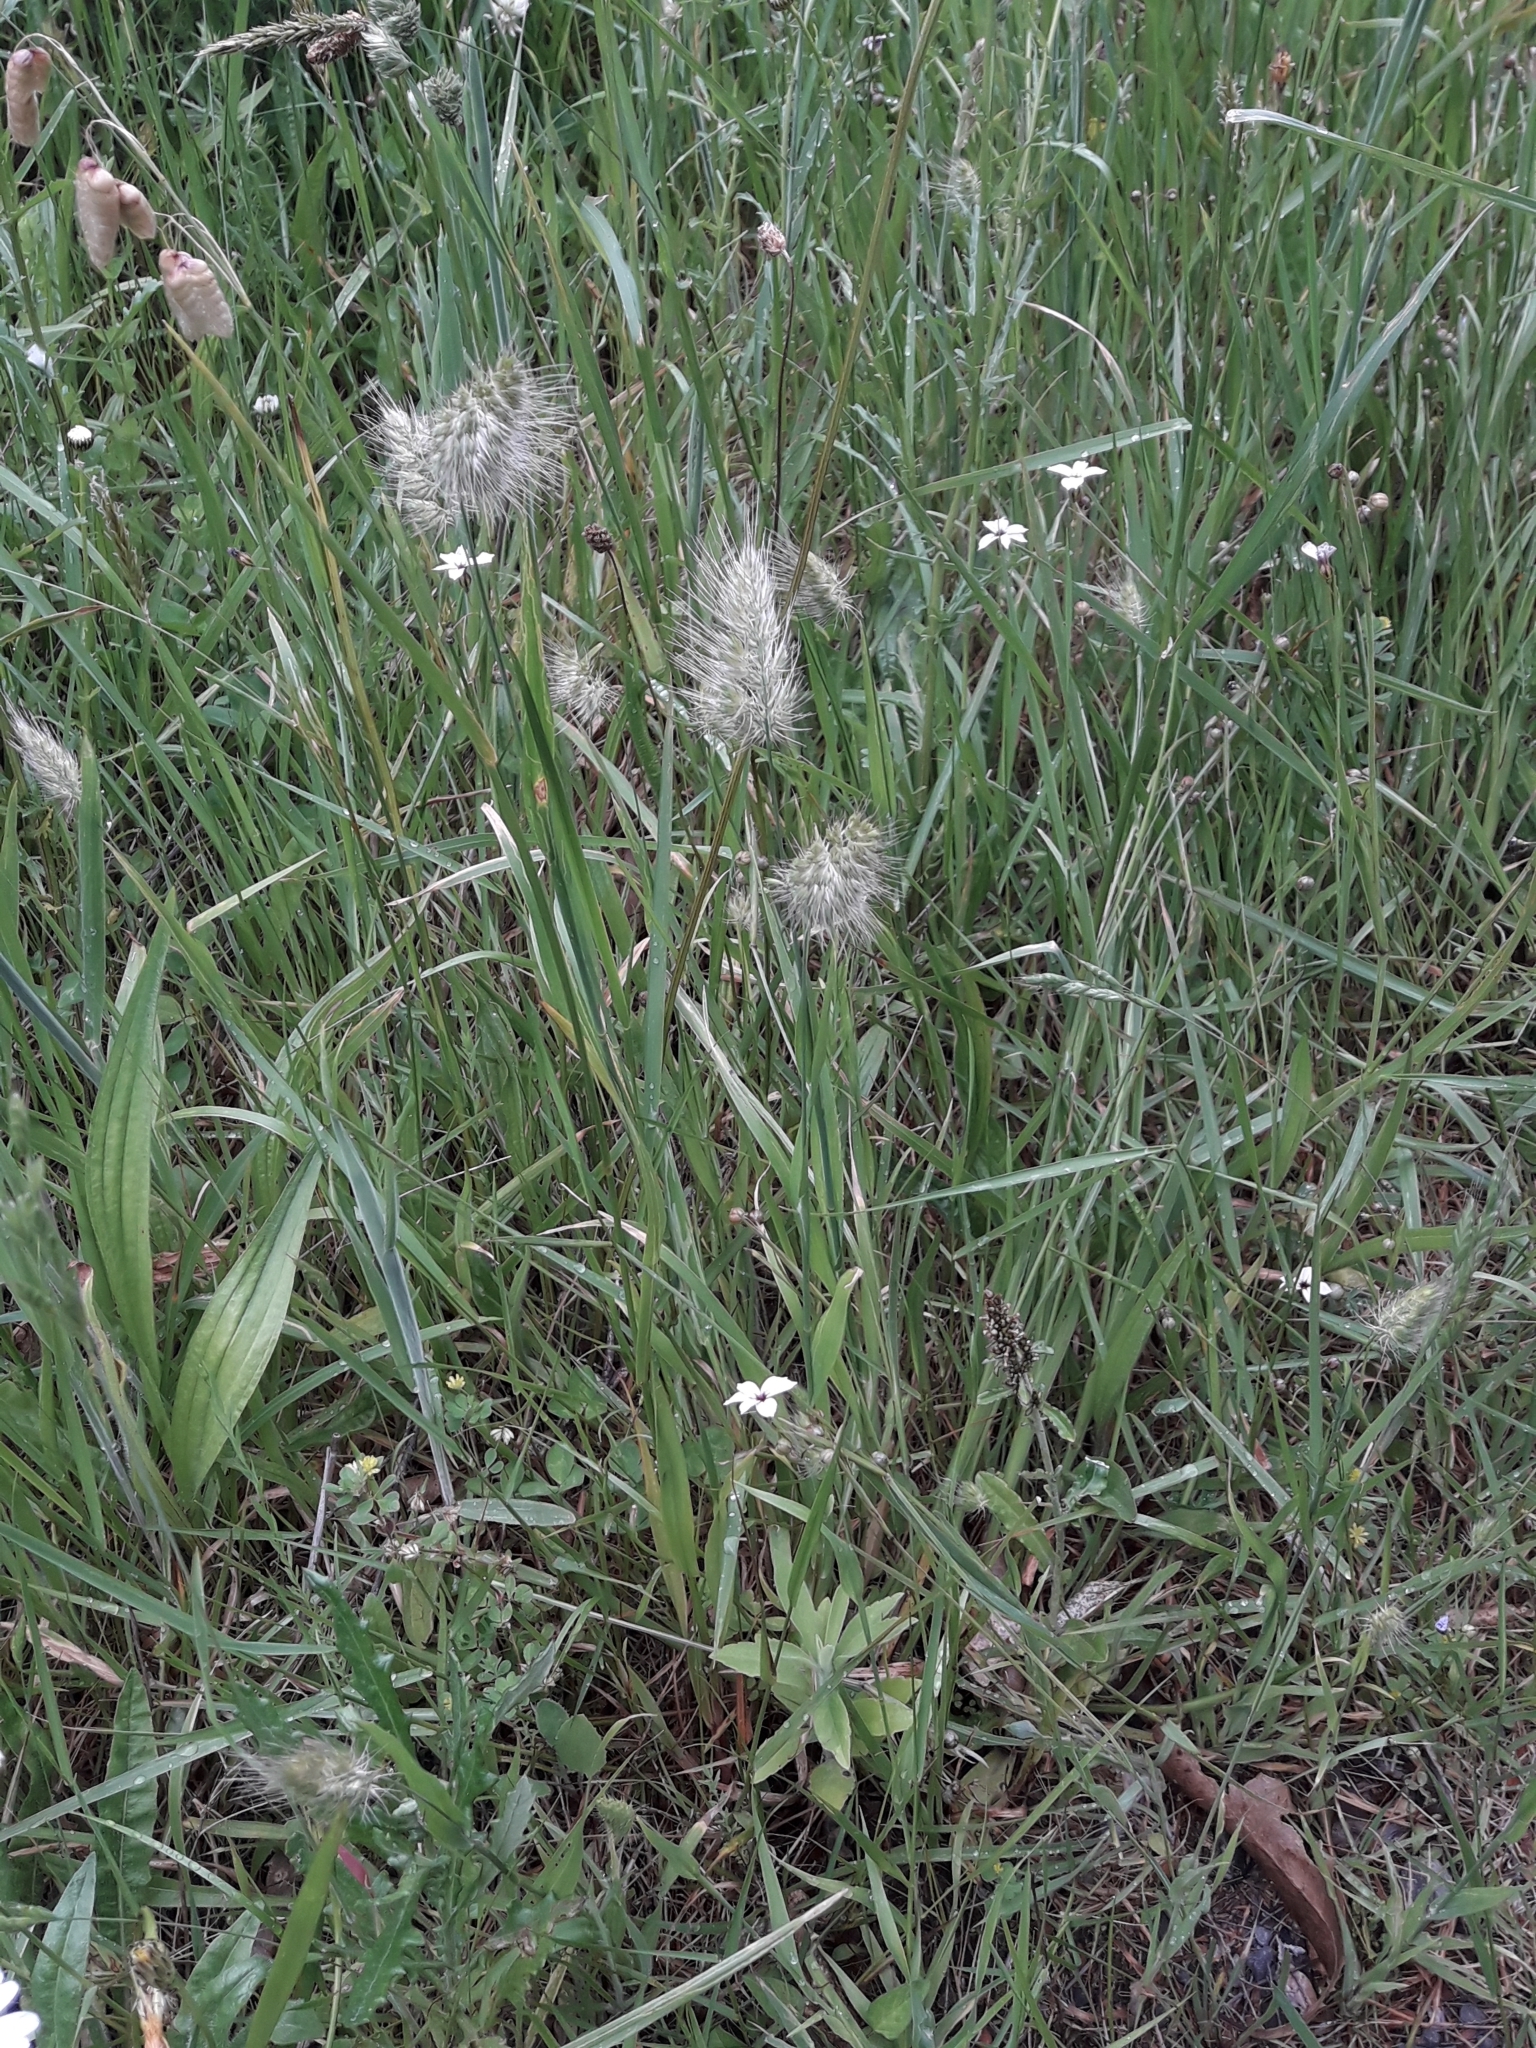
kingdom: Plantae
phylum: Tracheophyta
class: Liliopsida
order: Poales
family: Poaceae
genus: Cynosurus
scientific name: Cynosurus echinatus
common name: Rough dog's-tail
